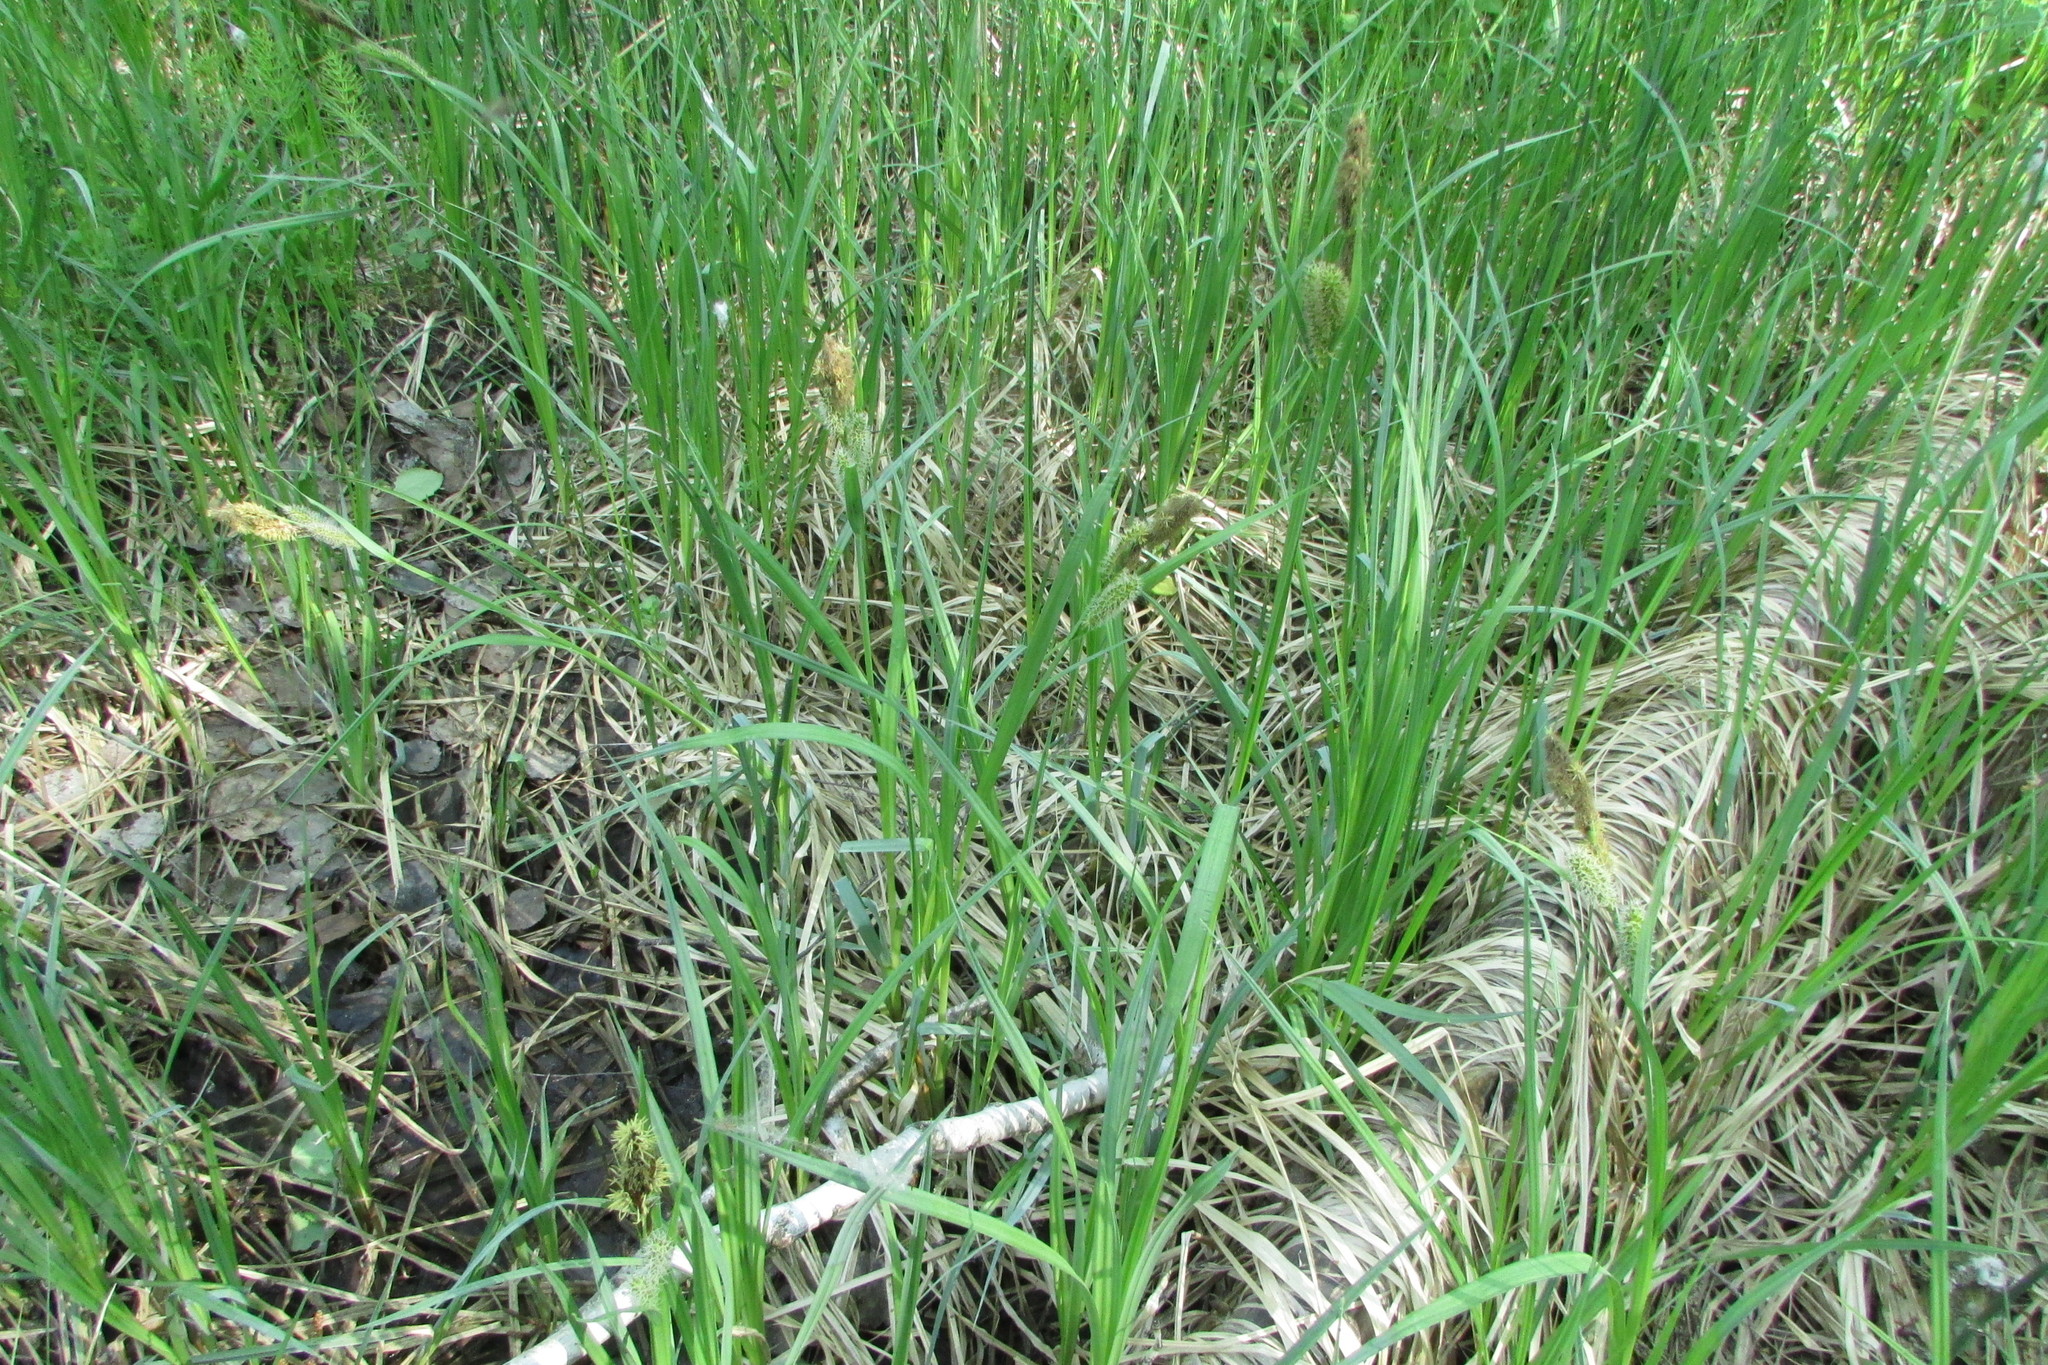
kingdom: Plantae
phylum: Tracheophyta
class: Liliopsida
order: Poales
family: Cyperaceae
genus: Carex
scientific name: Carex riparia
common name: Greater pond-sedge
